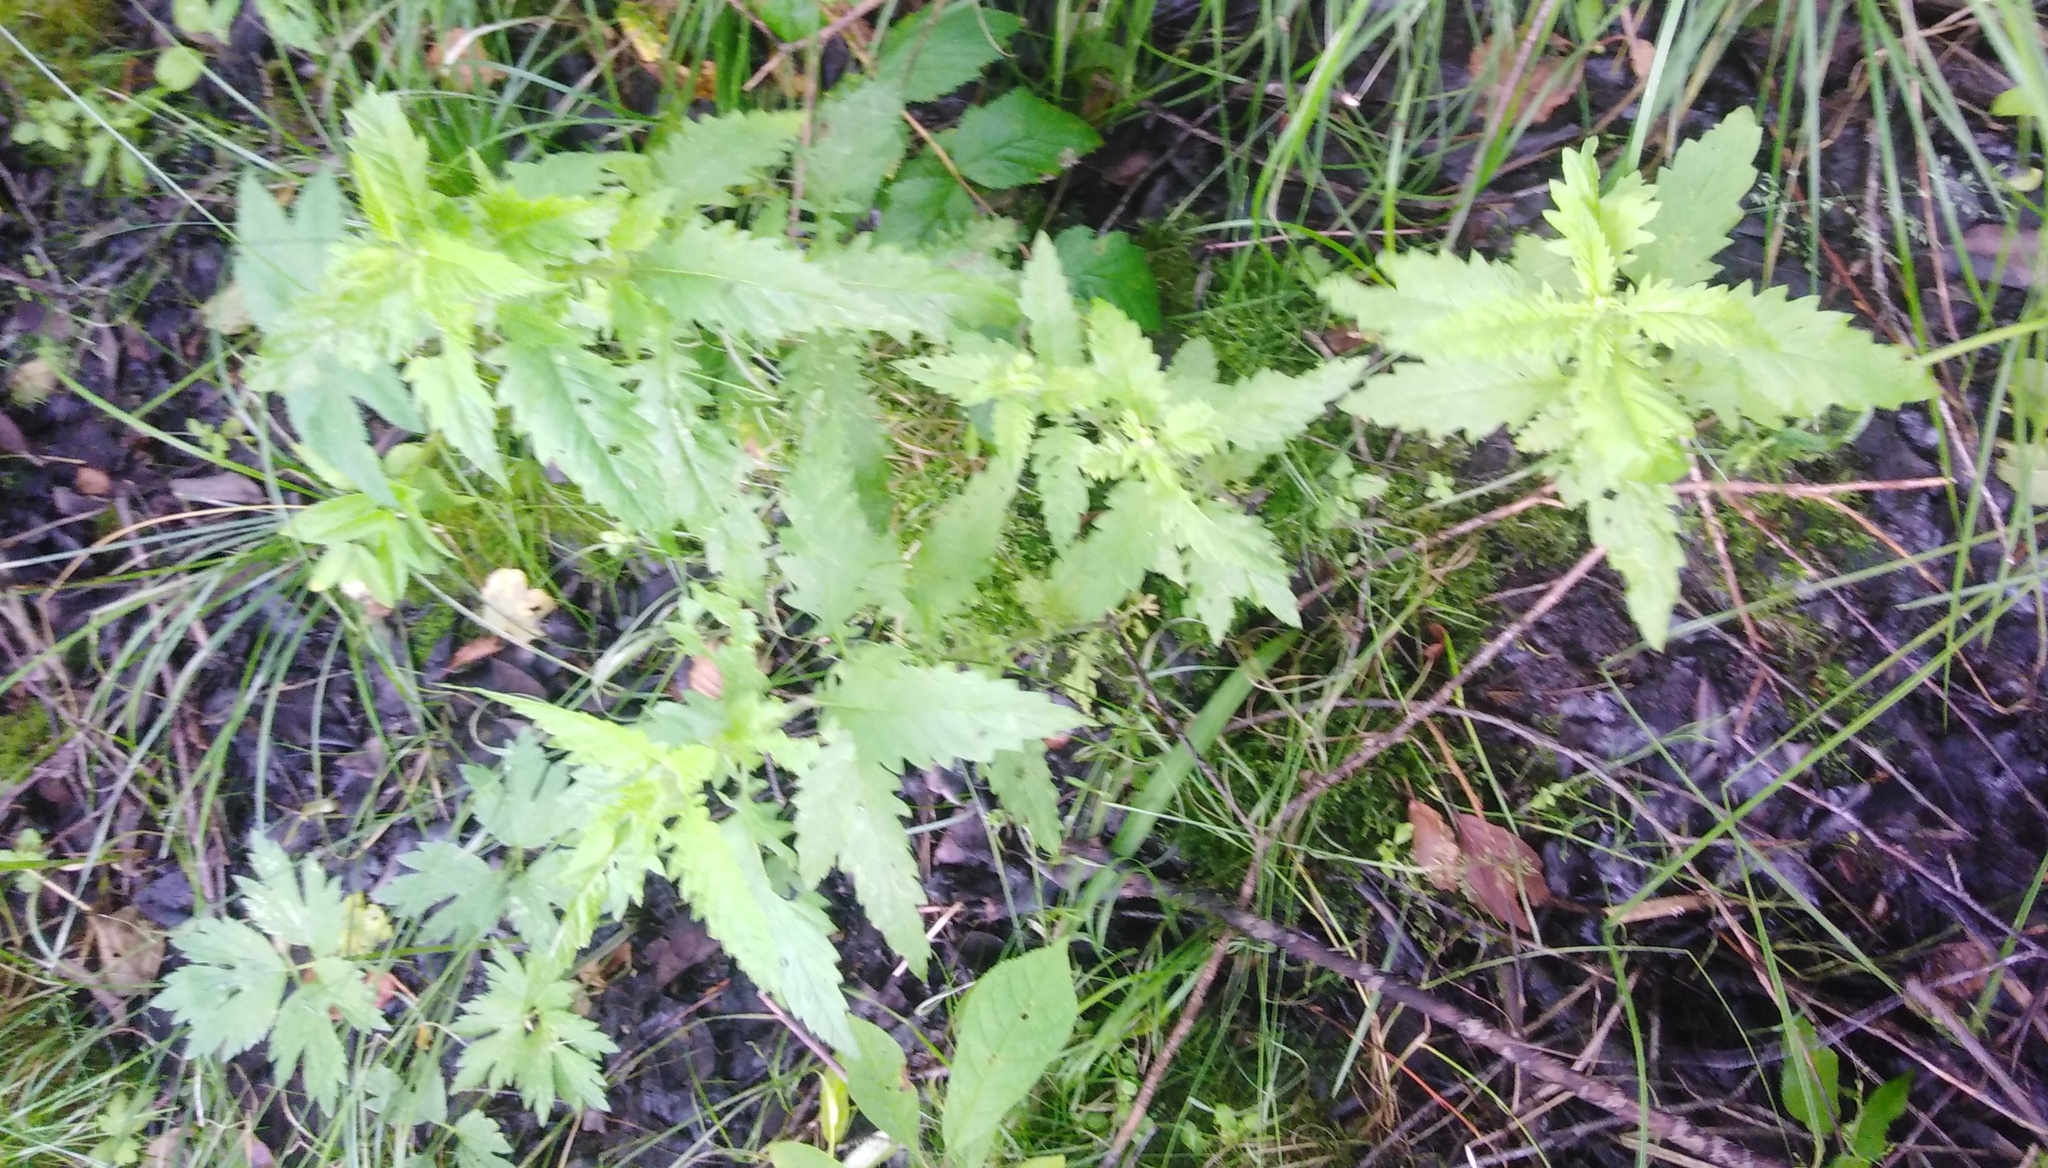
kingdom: Plantae
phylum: Tracheophyta
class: Magnoliopsida
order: Lamiales
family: Lamiaceae
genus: Lycopus
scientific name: Lycopus europaeus
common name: European bugleweed
